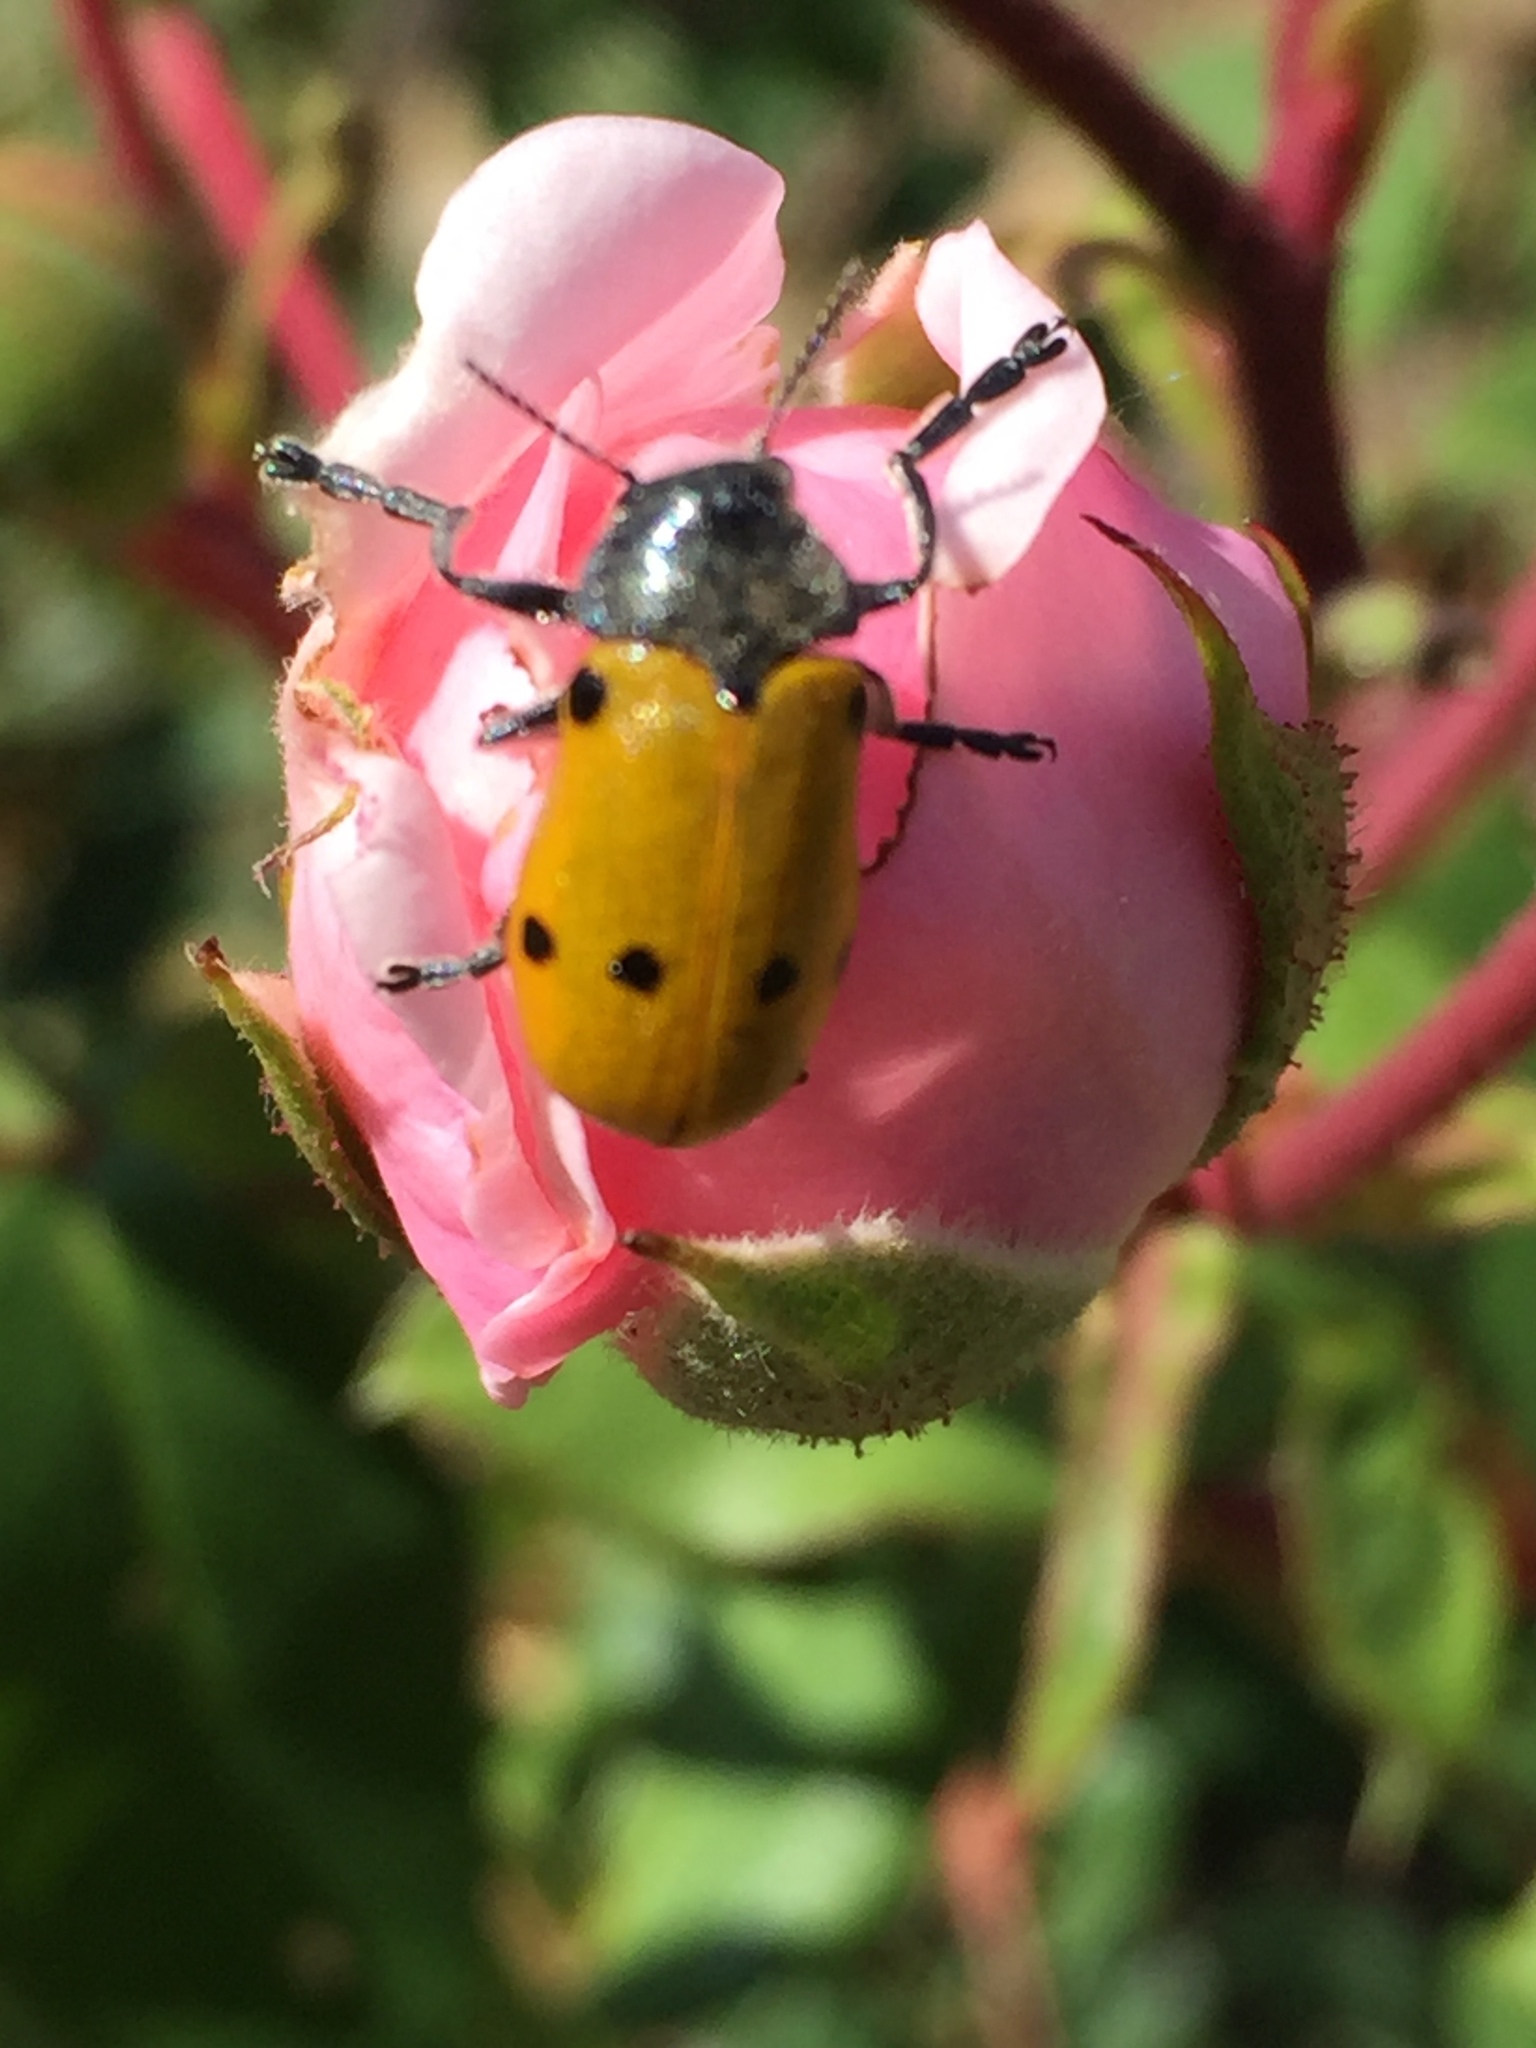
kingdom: Animalia
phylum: Arthropoda
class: Insecta
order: Coleoptera
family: Chrysomelidae
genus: Lachnaia
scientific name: Lachnaia sexpunctata
